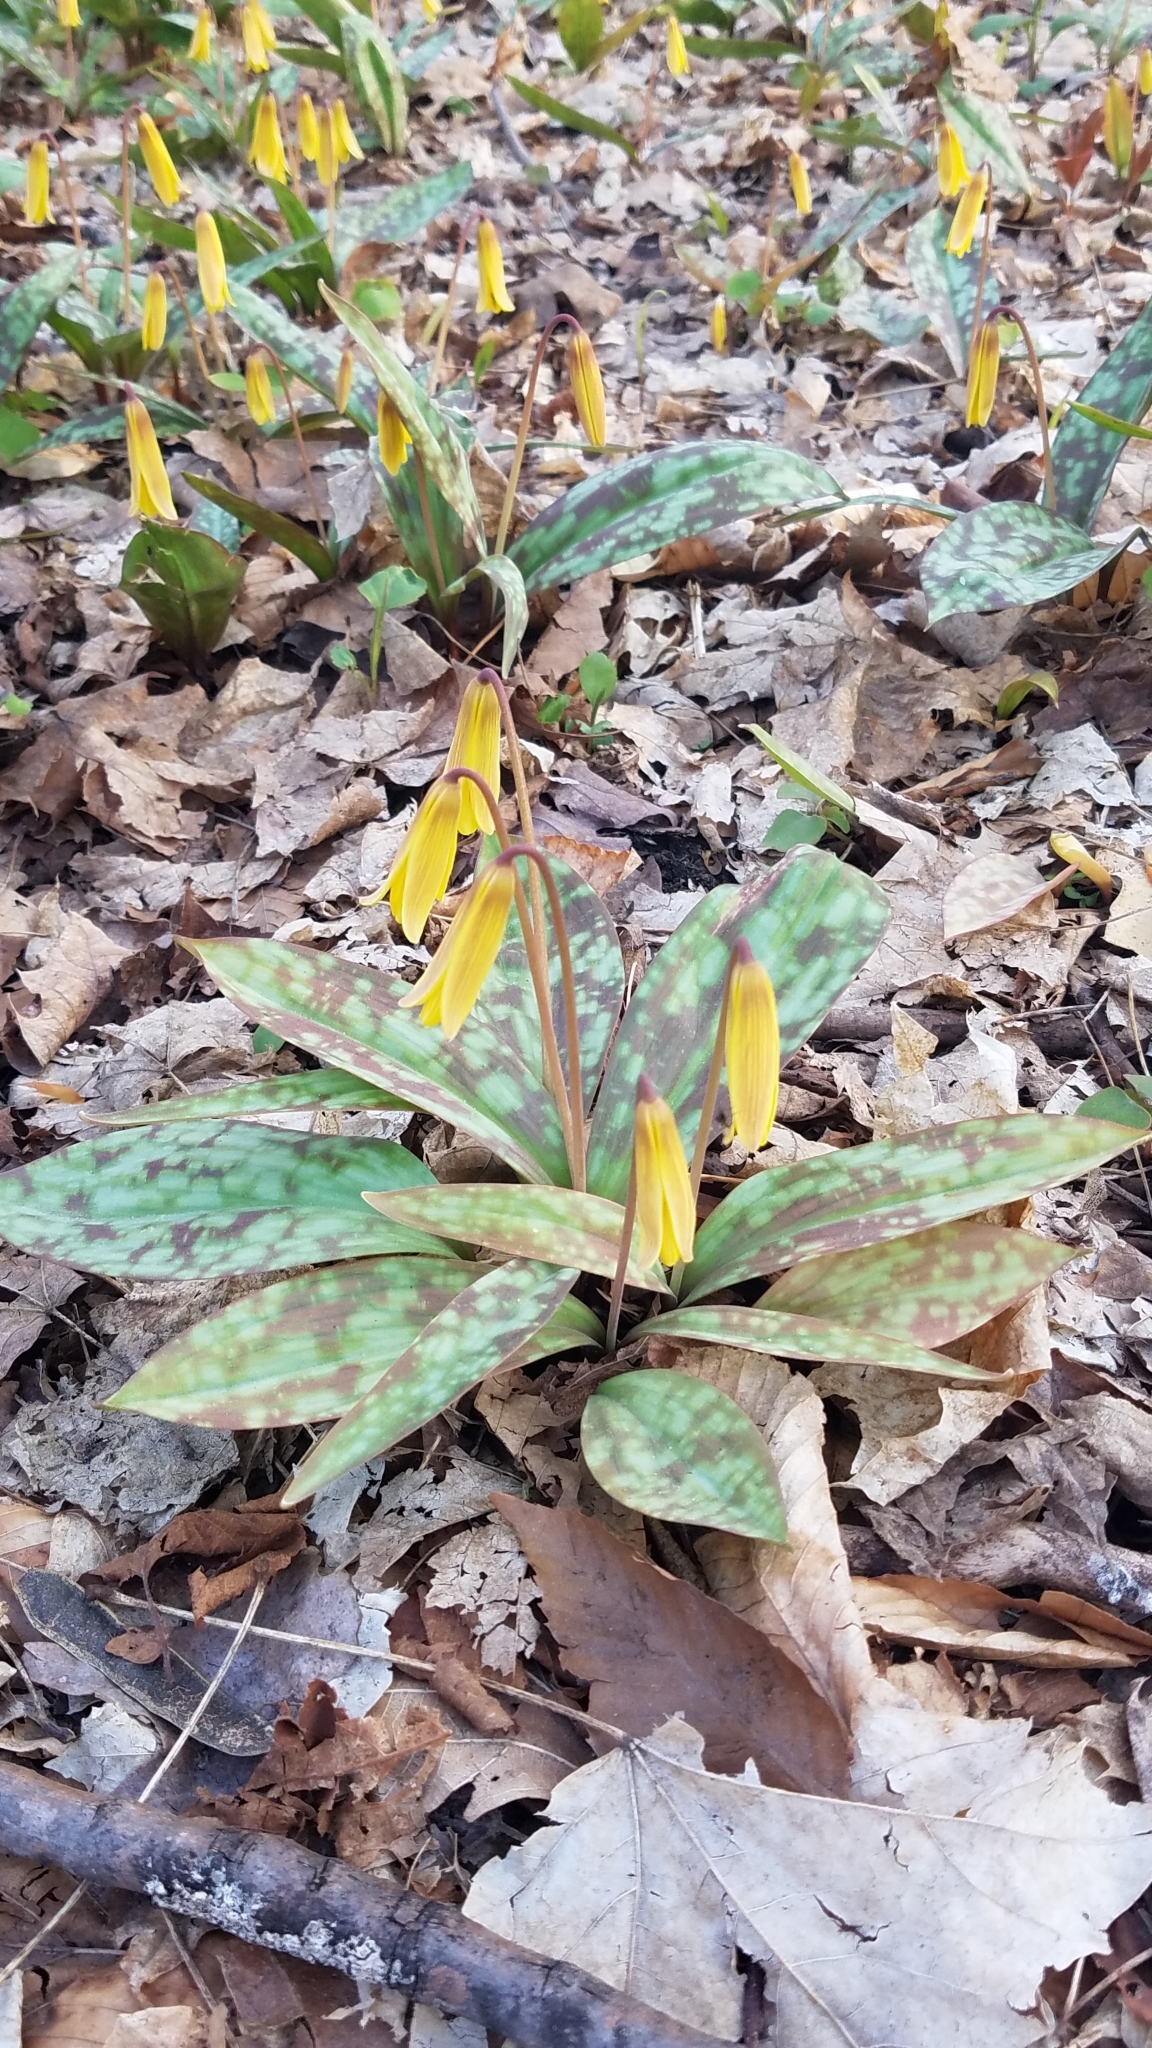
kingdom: Plantae
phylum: Tracheophyta
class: Liliopsida
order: Liliales
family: Liliaceae
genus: Erythronium
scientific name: Erythronium americanum
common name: Yellow adder's-tongue
